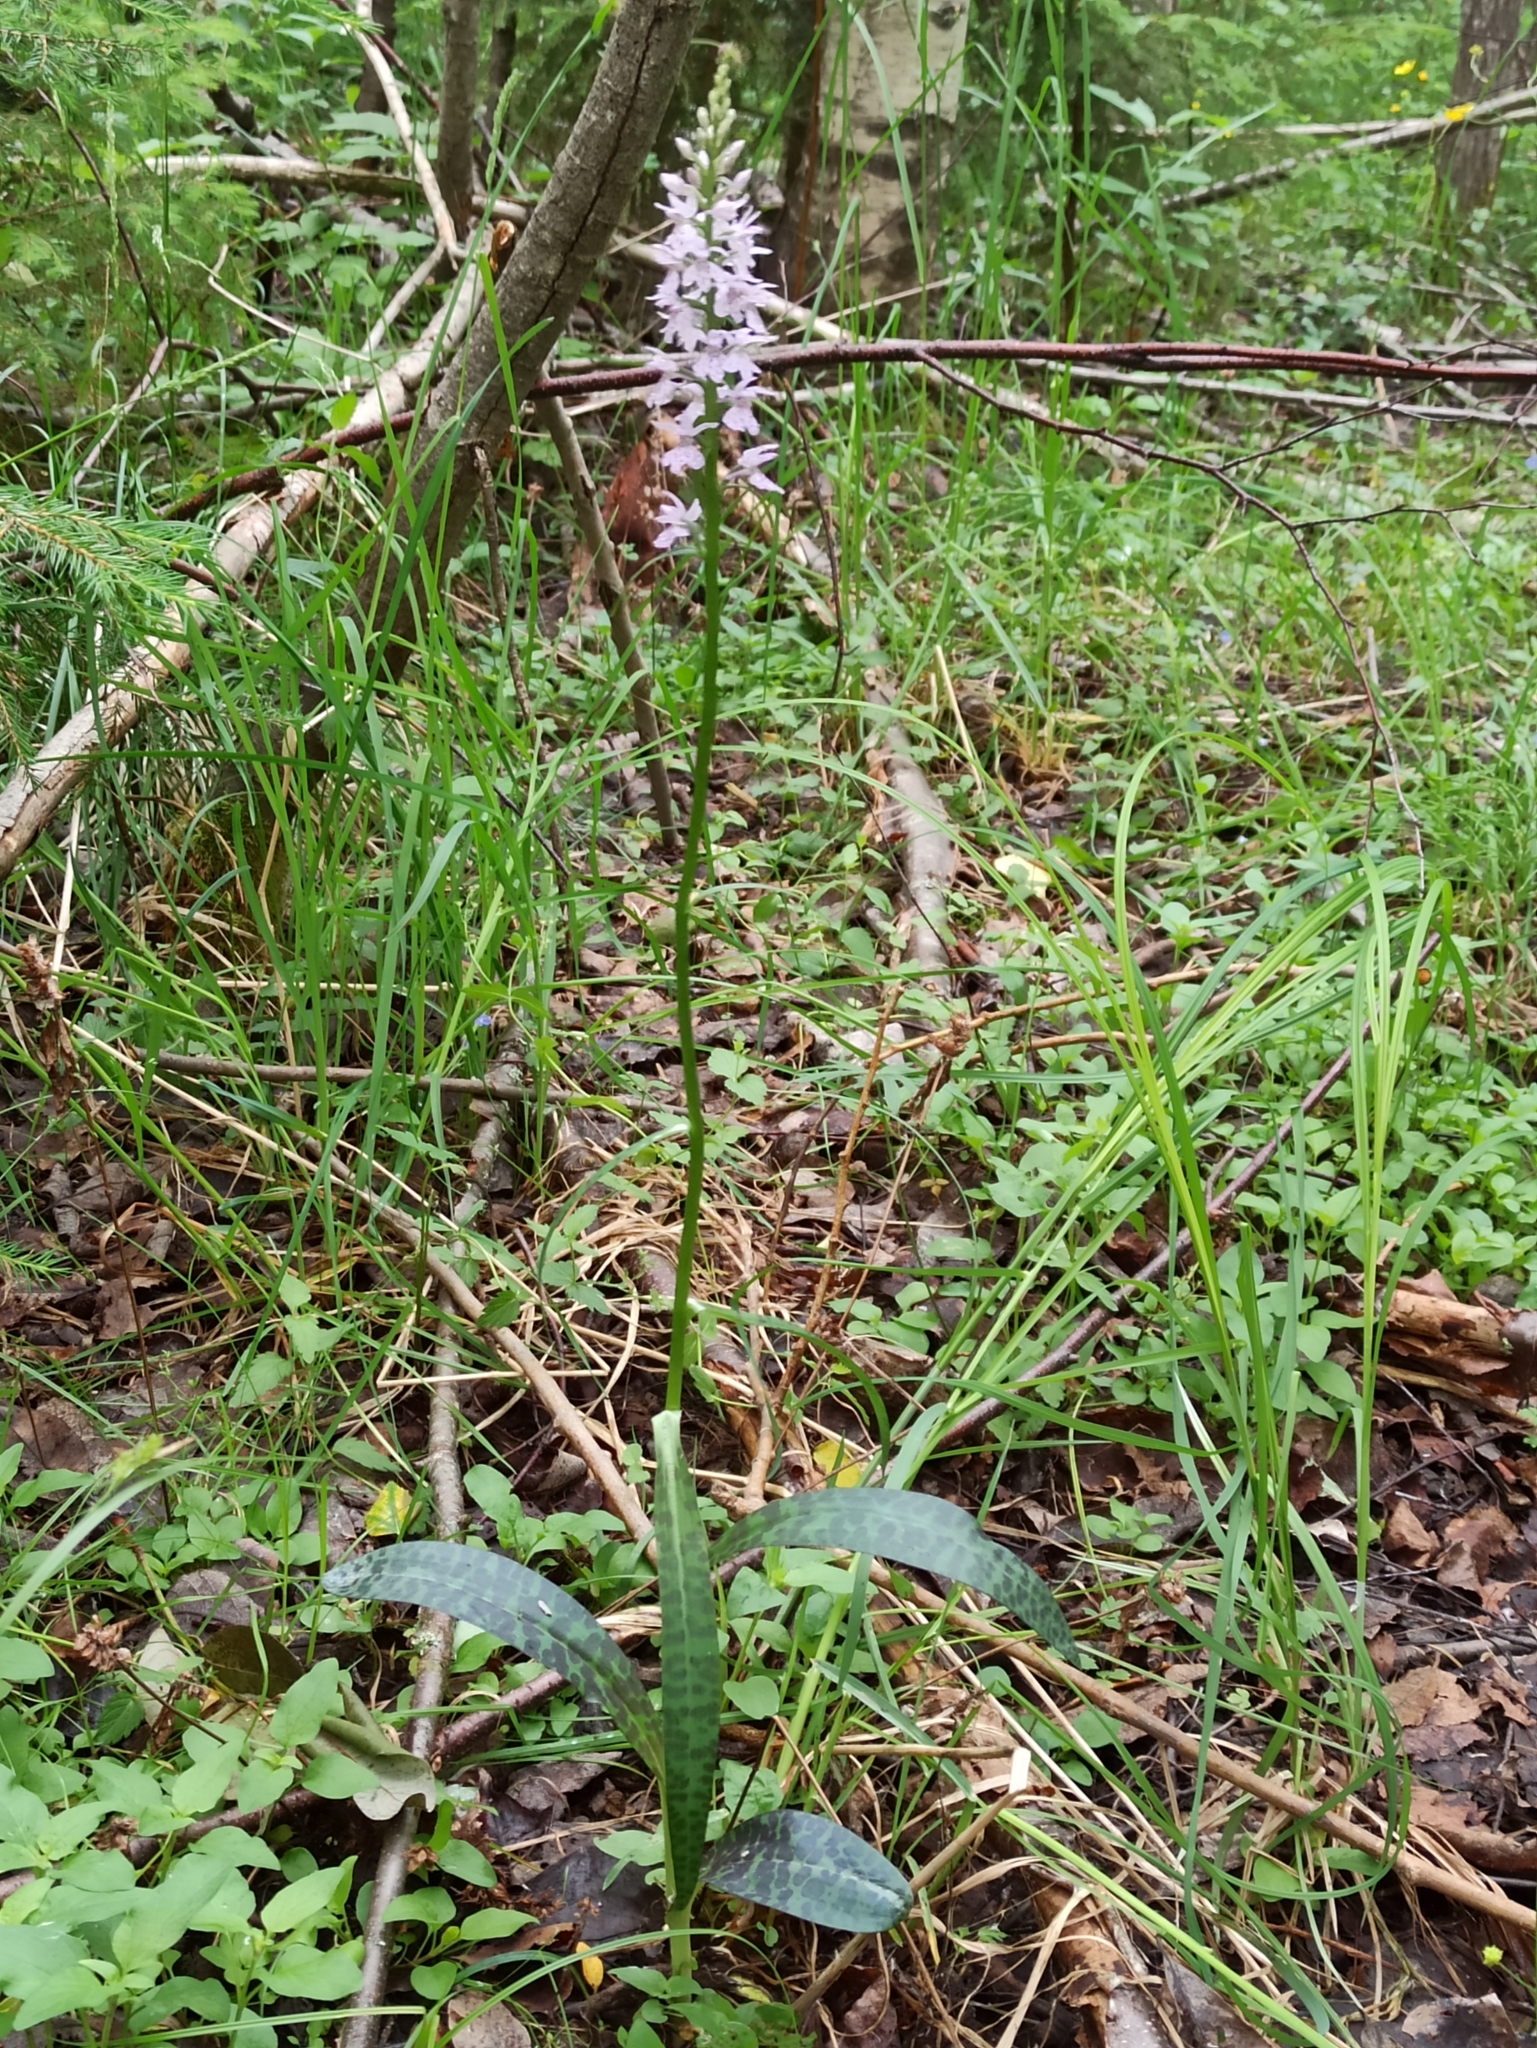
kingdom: Plantae
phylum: Tracheophyta
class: Liliopsida
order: Asparagales
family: Orchidaceae
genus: Dactylorhiza
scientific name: Dactylorhiza maculata
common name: Heath spotted-orchid
